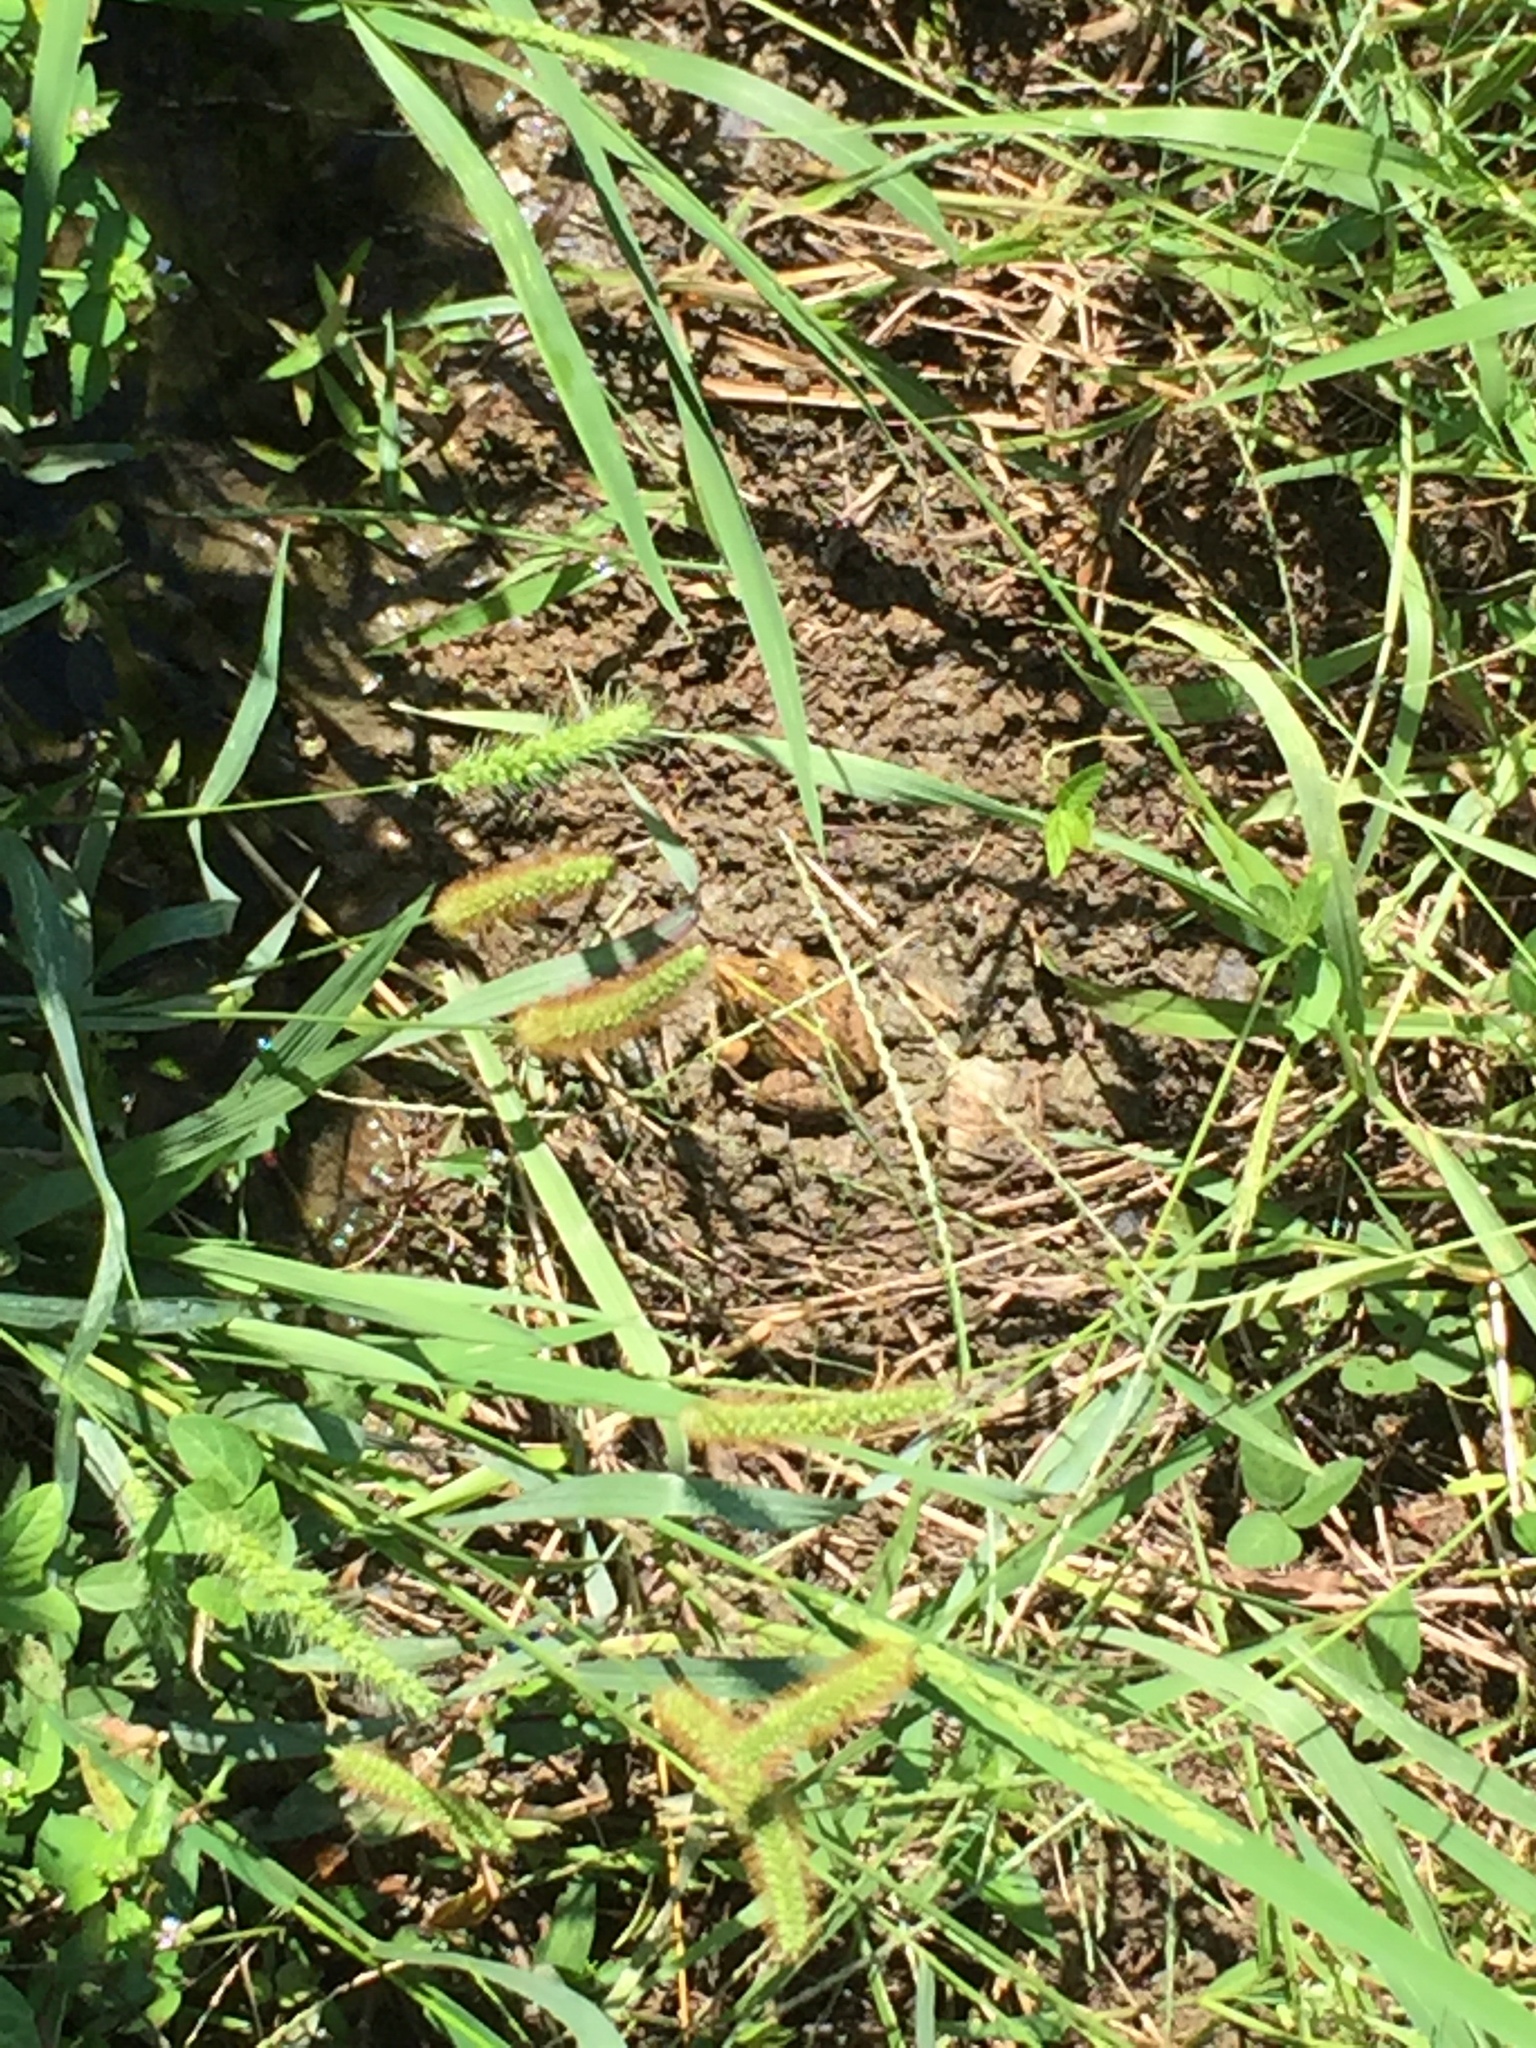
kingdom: Animalia
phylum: Chordata
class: Amphibia
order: Anura
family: Ranidae
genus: Pelophylax
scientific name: Pelophylax nigromaculatus
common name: Black-spotted pond frog
